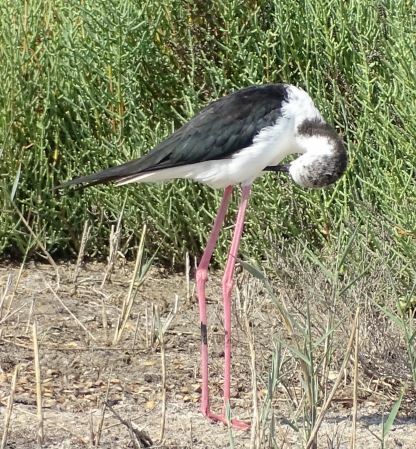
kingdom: Animalia
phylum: Chordata
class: Aves
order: Charadriiformes
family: Recurvirostridae
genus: Himantopus
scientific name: Himantopus himantopus
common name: Black-winged stilt
